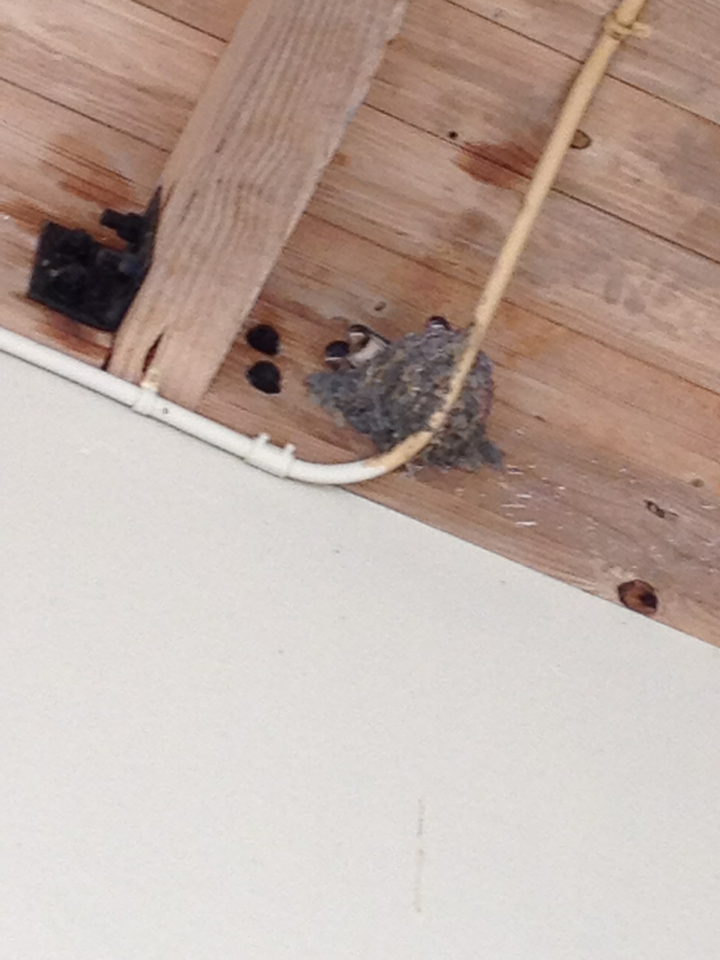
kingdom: Animalia
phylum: Chordata
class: Aves
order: Passeriformes
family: Hirundinidae
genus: Hirundo
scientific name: Hirundo rustica
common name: Barn swallow
